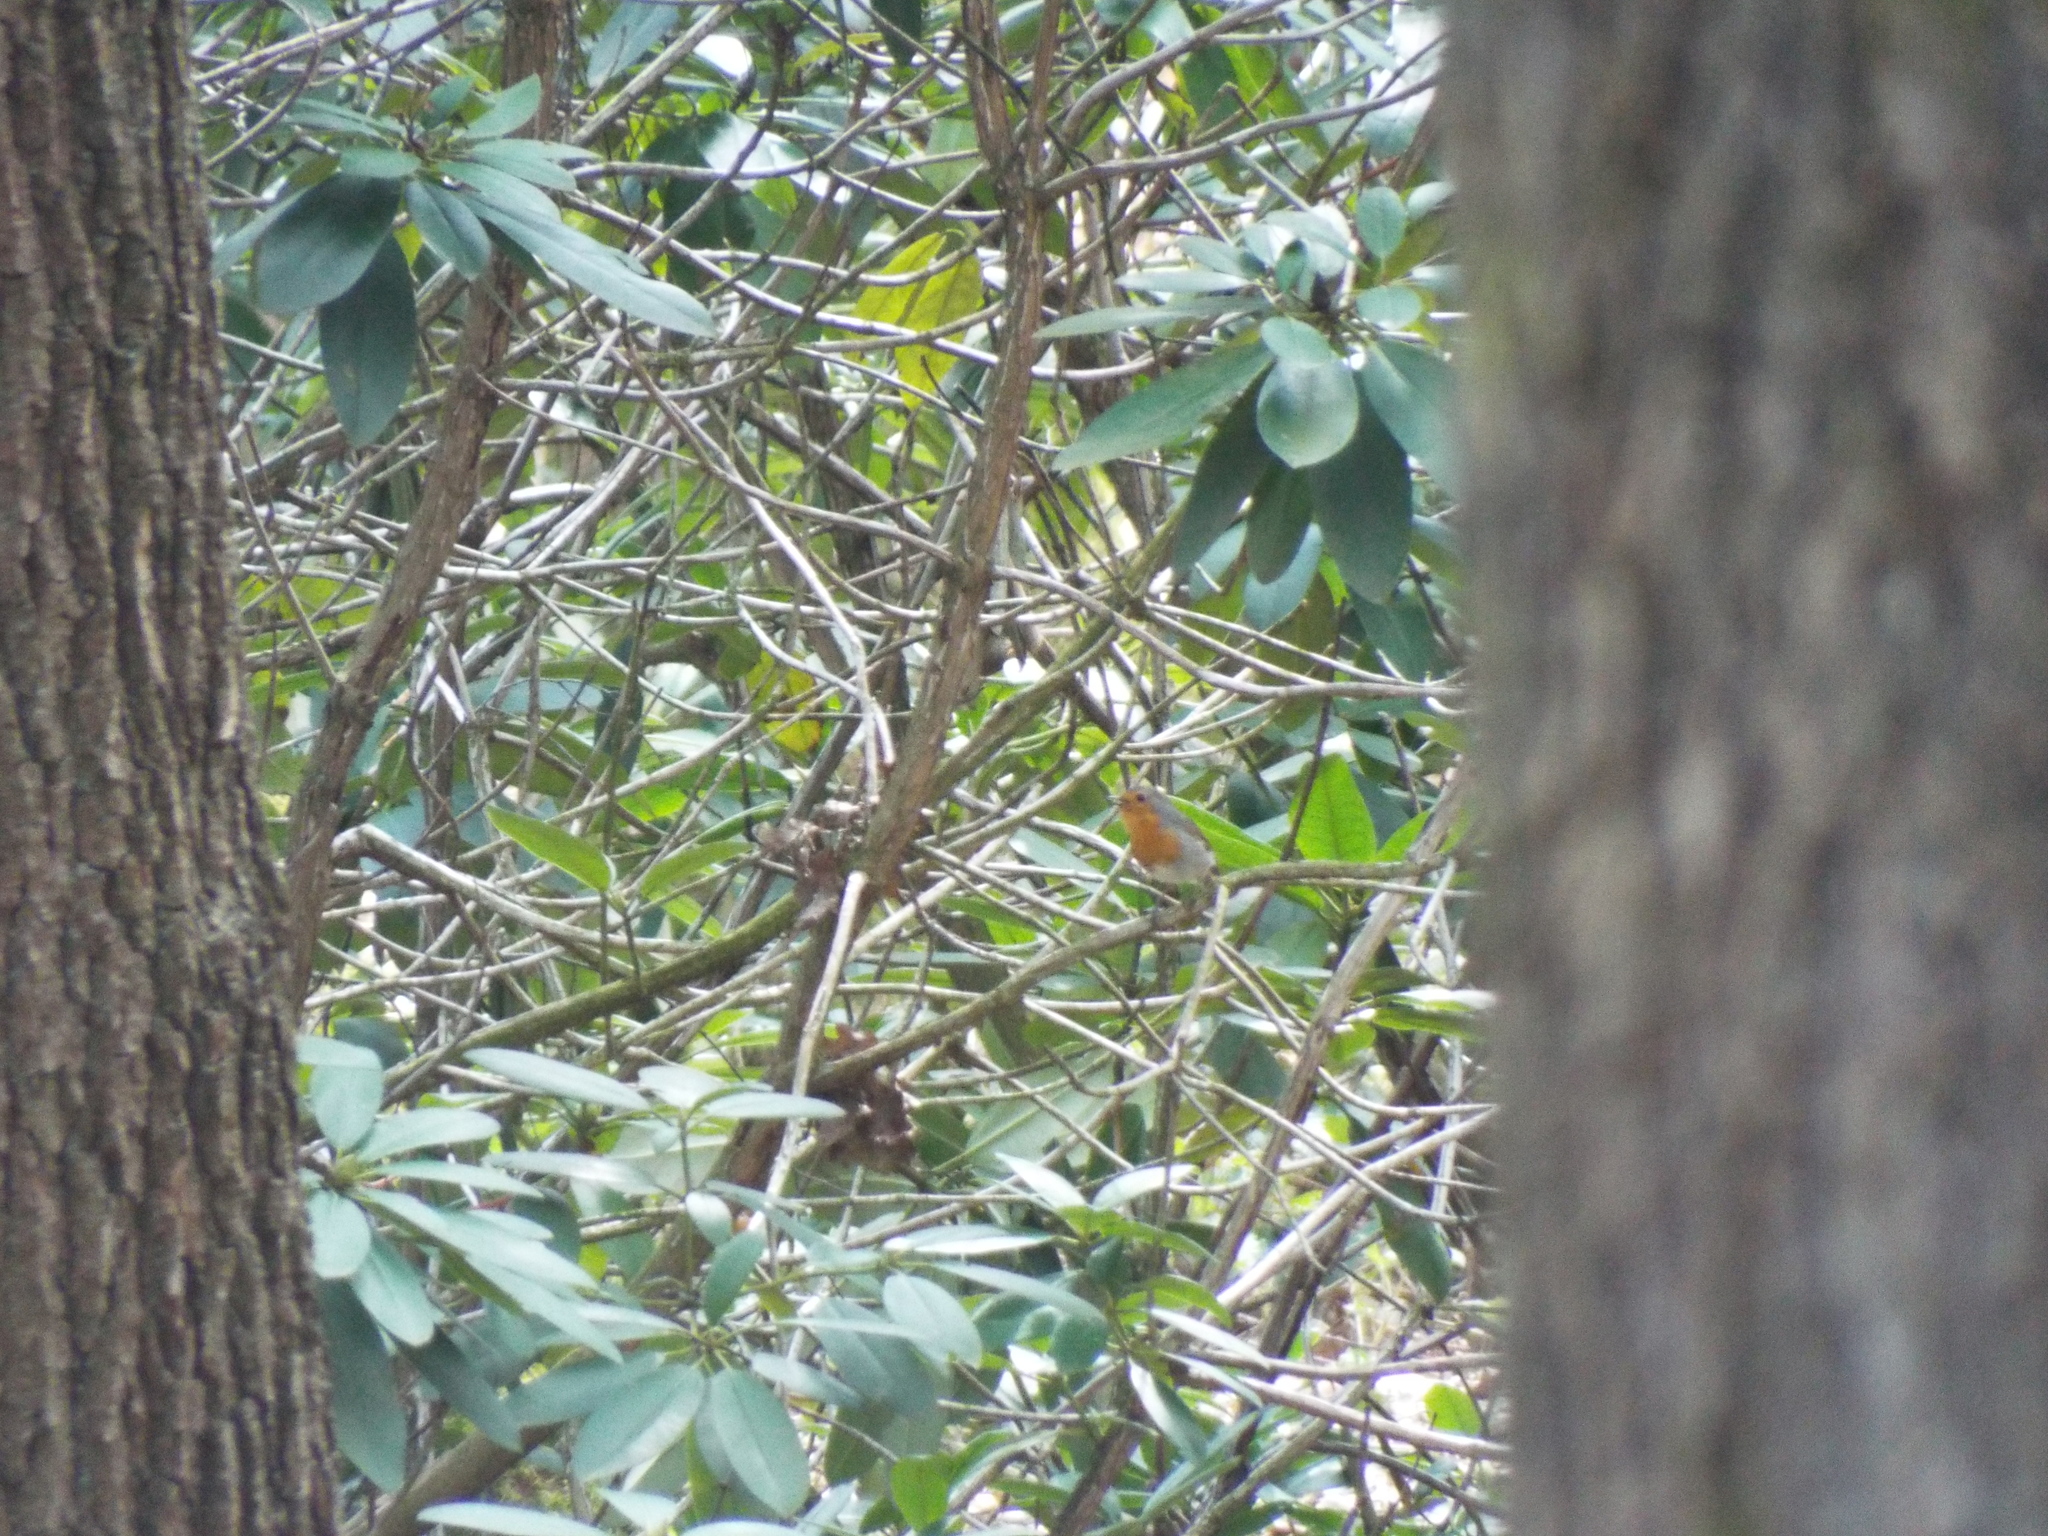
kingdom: Animalia
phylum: Chordata
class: Aves
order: Passeriformes
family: Muscicapidae
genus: Erithacus
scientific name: Erithacus rubecula
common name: European robin
